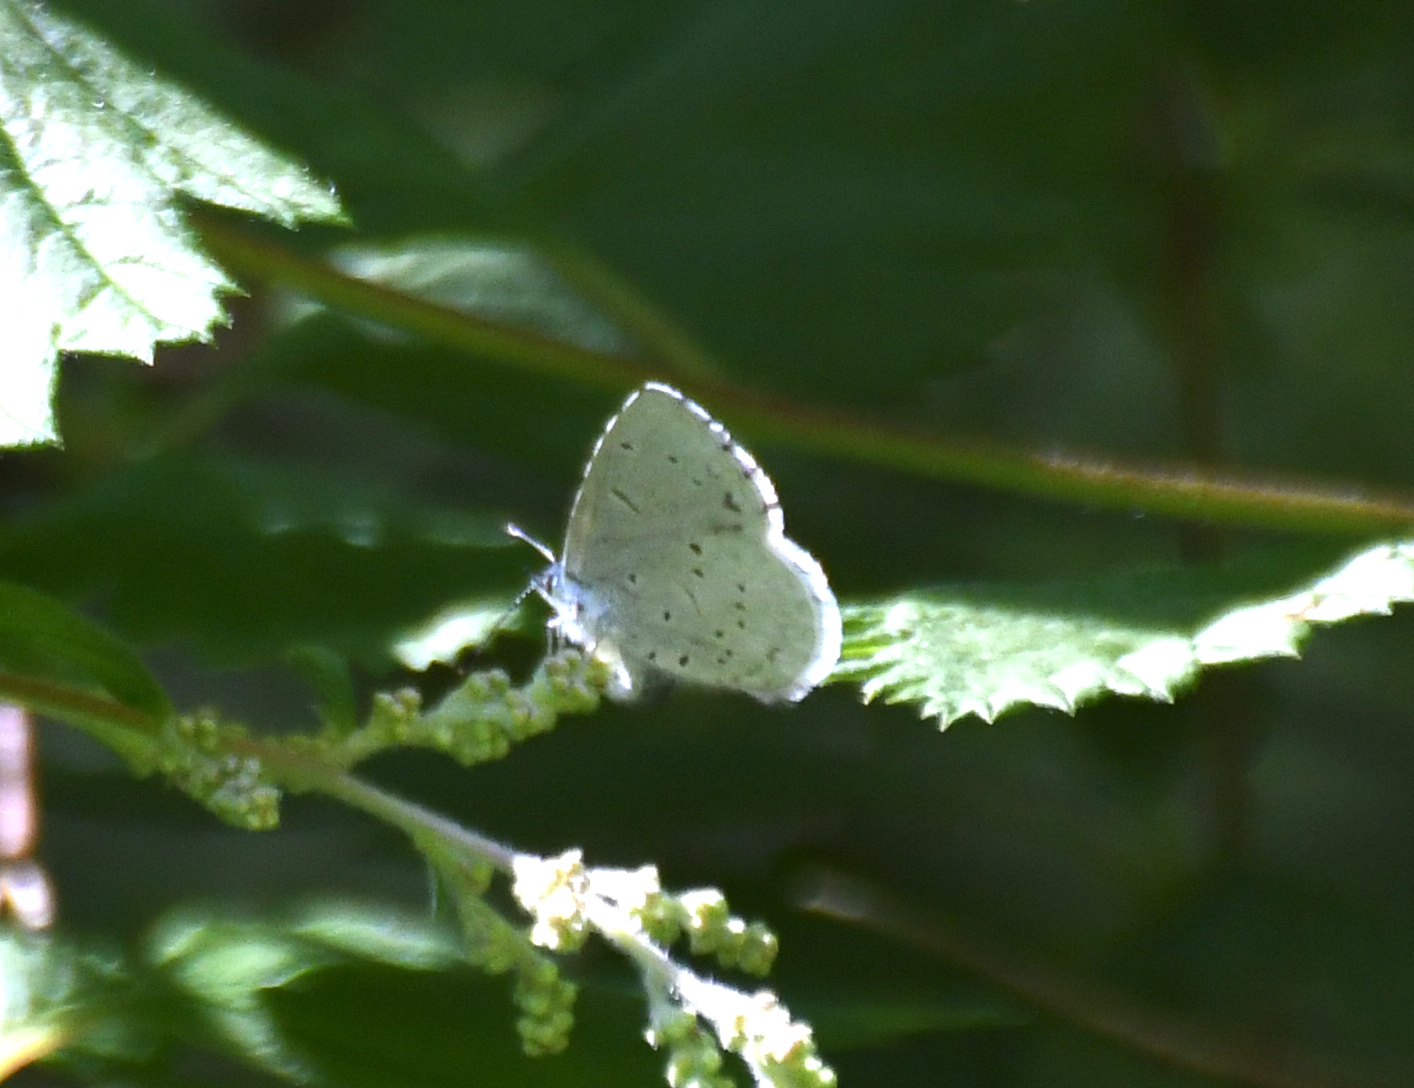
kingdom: Animalia
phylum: Arthropoda
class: Insecta
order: Lepidoptera
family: Lycaenidae
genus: Celastrina
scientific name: Celastrina ladon
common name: Spring azure
